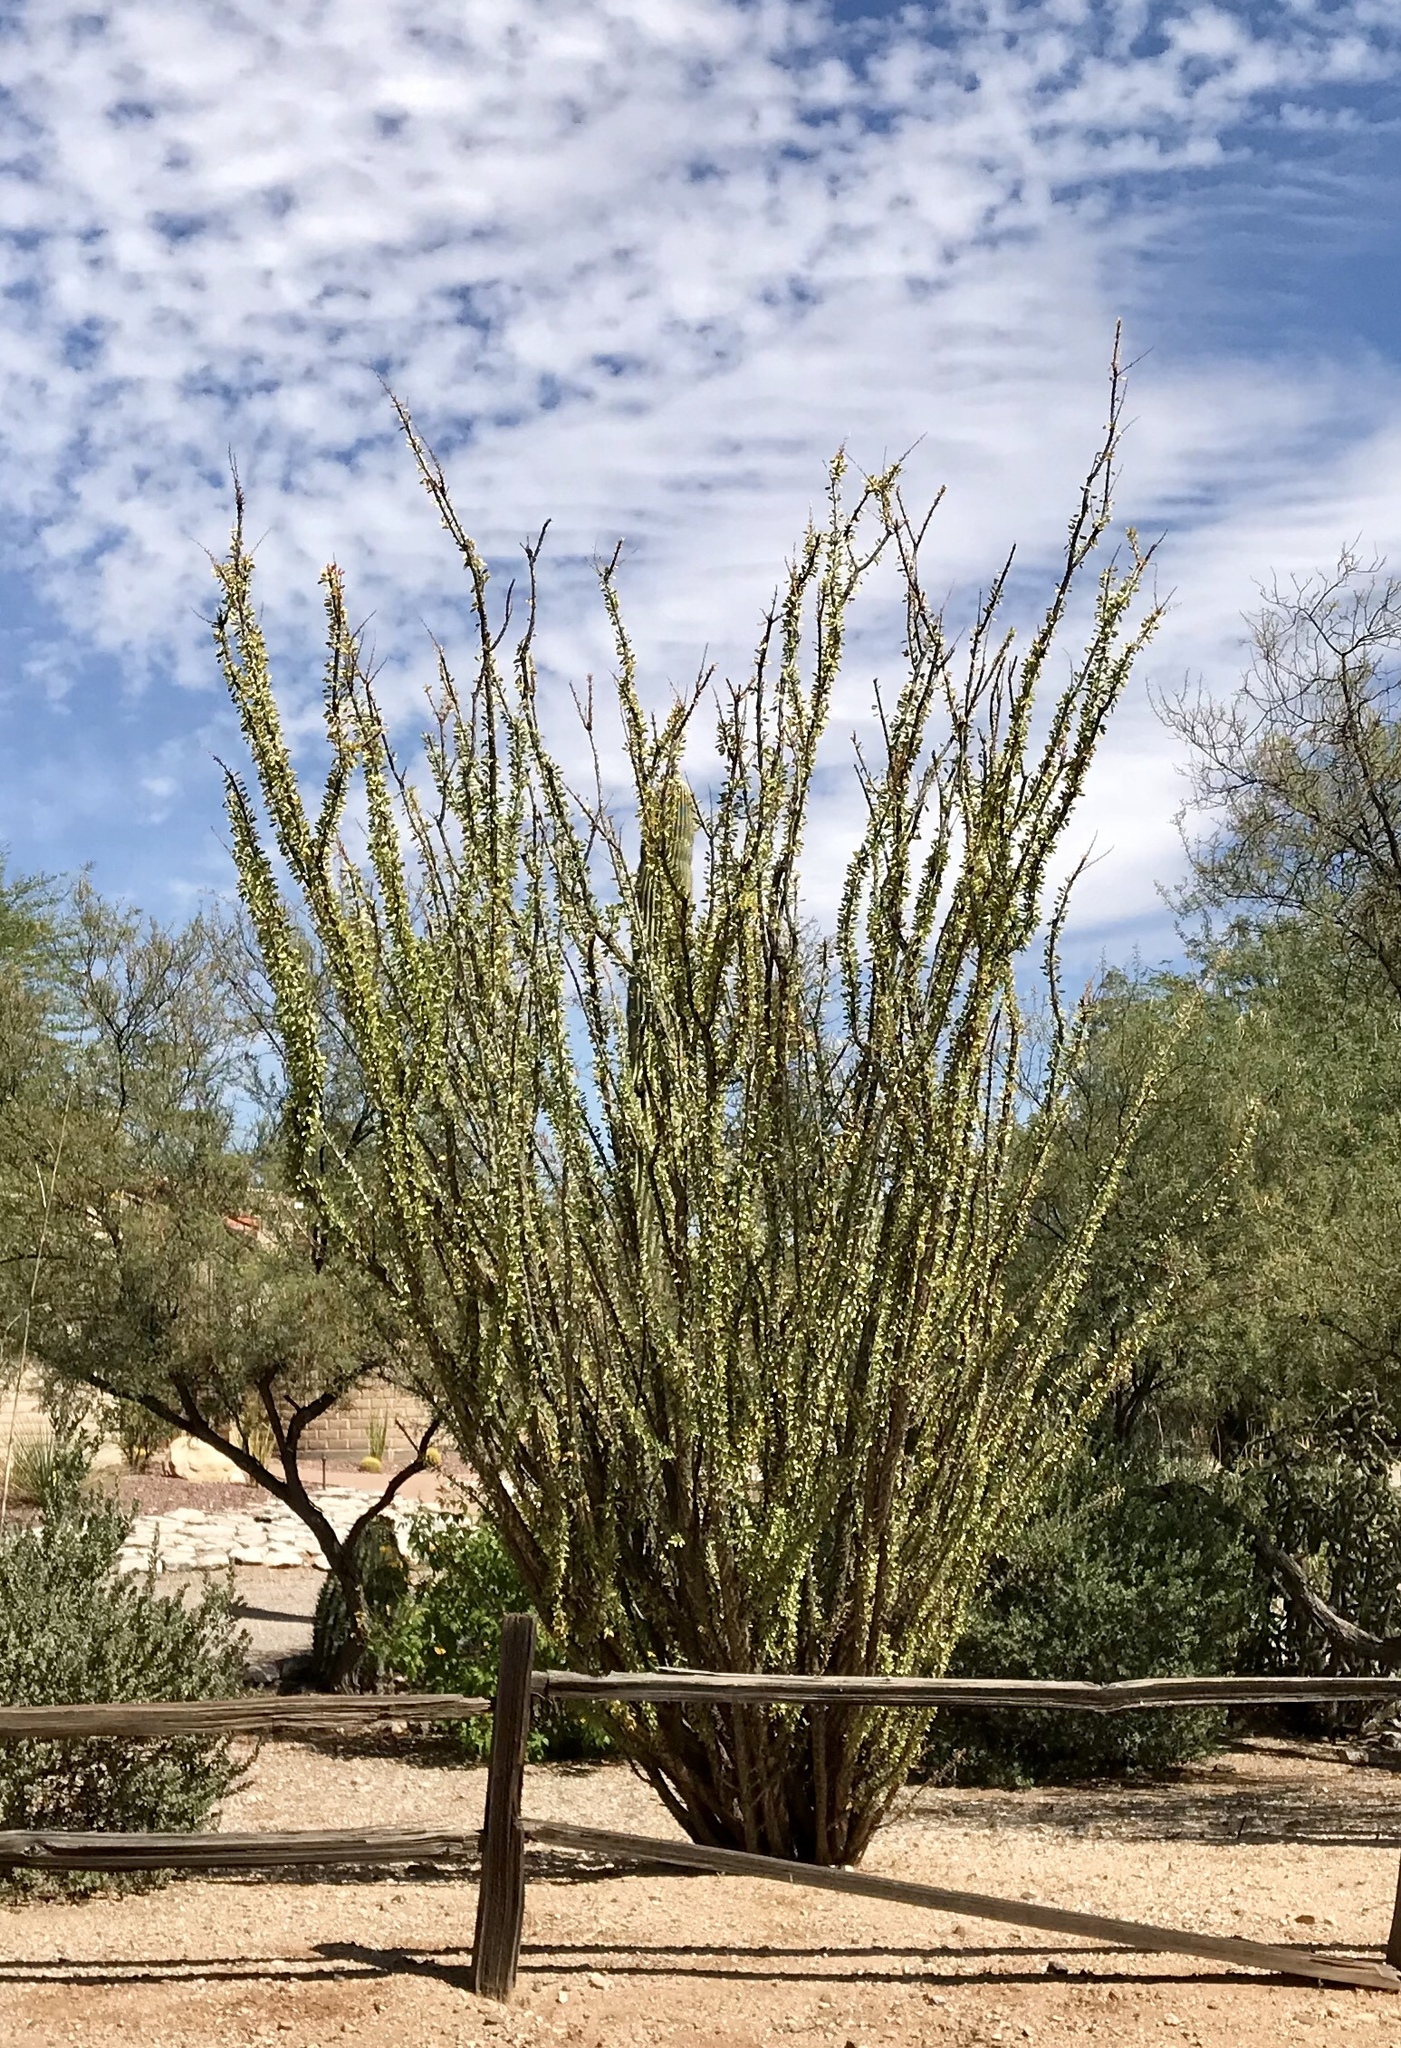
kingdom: Plantae
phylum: Tracheophyta
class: Magnoliopsida
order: Ericales
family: Fouquieriaceae
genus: Fouquieria
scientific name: Fouquieria splendens
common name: Vine-cactus
